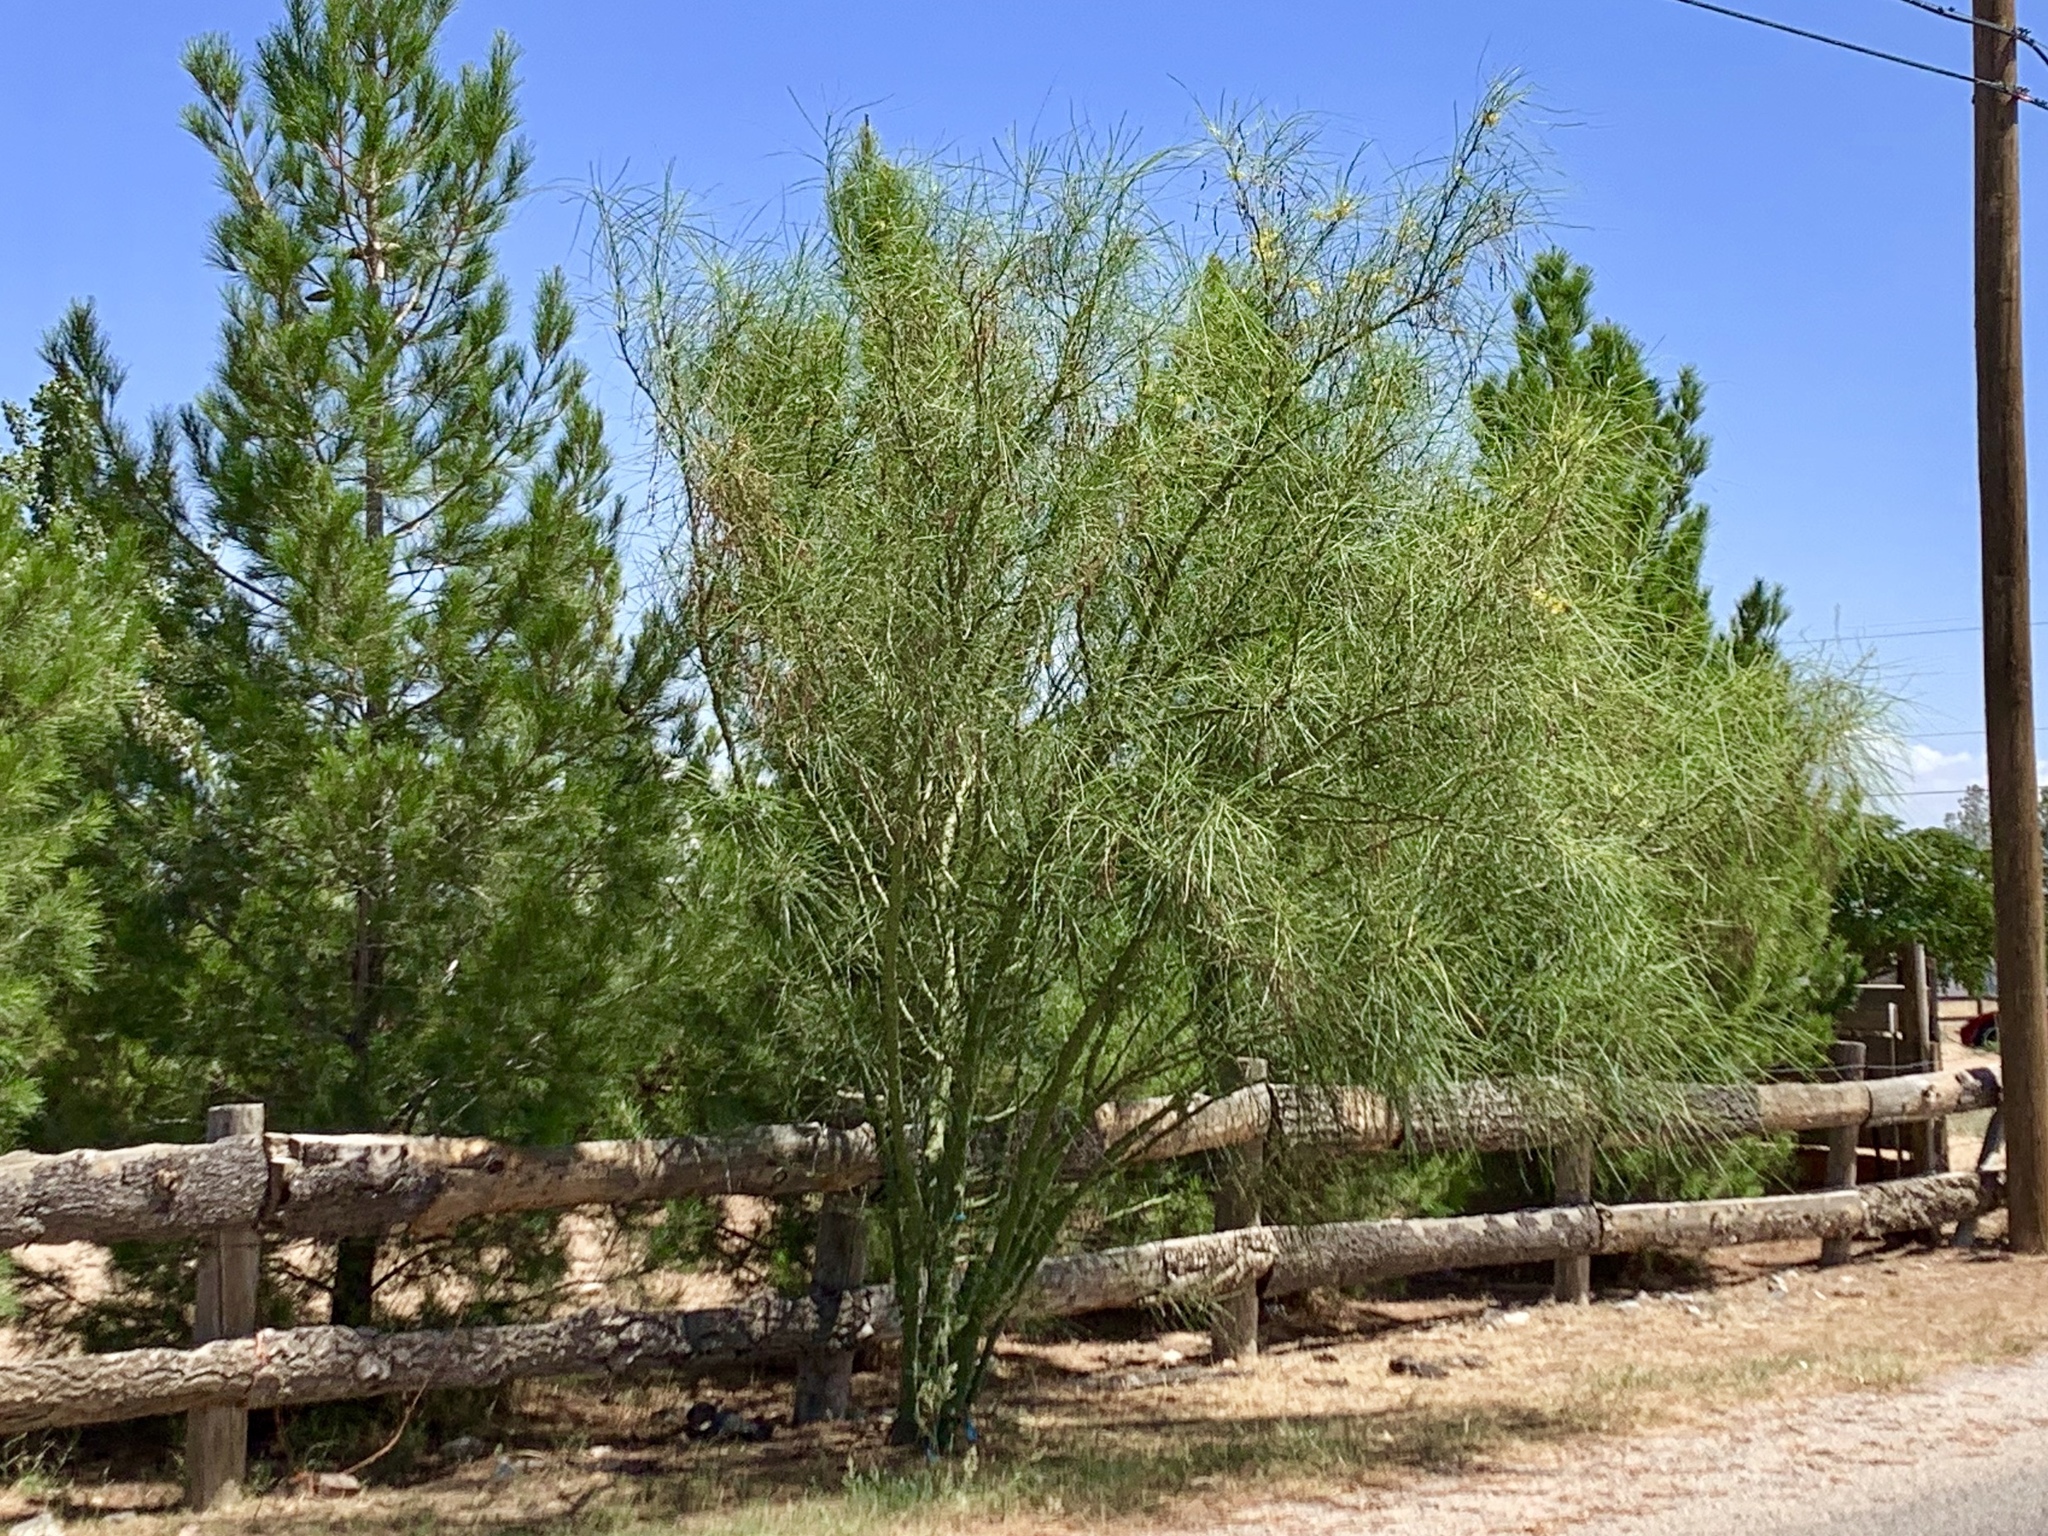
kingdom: Plantae
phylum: Tracheophyta
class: Magnoliopsida
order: Fabales
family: Fabaceae
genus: Parkinsonia
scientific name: Parkinsonia aculeata
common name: Jerusalem thorn
